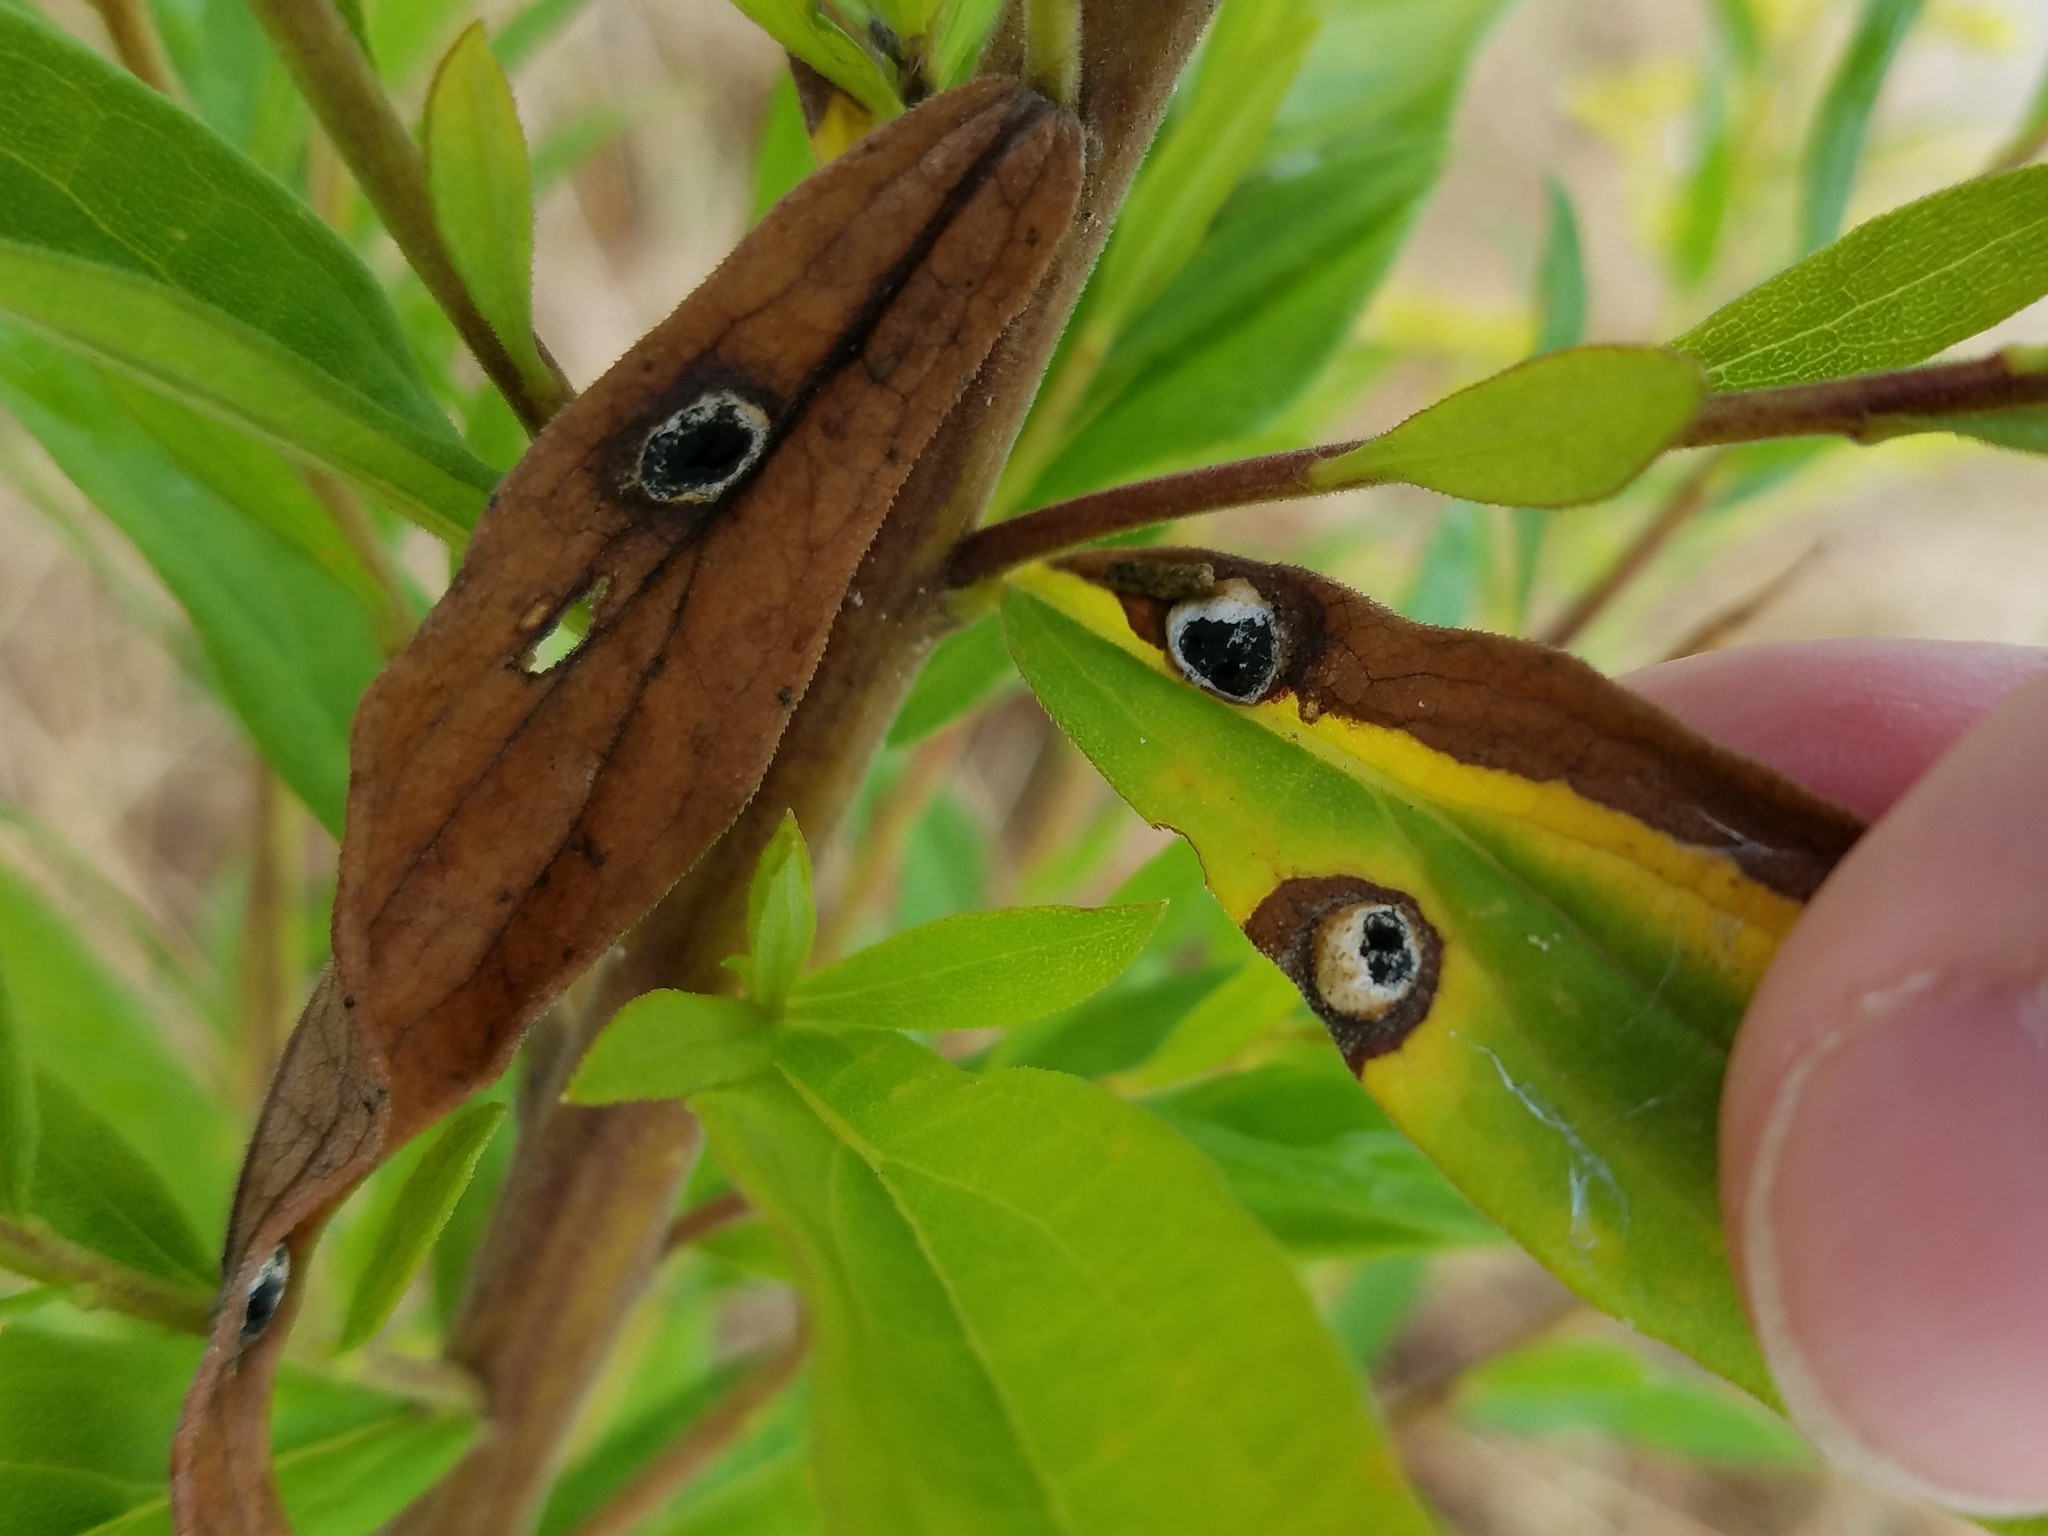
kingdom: Animalia
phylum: Arthropoda
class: Insecta
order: Diptera
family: Cecidomyiidae
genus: Asteromyia
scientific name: Asteromyia carbonifera
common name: Carbonifera goldenrod gall midge
